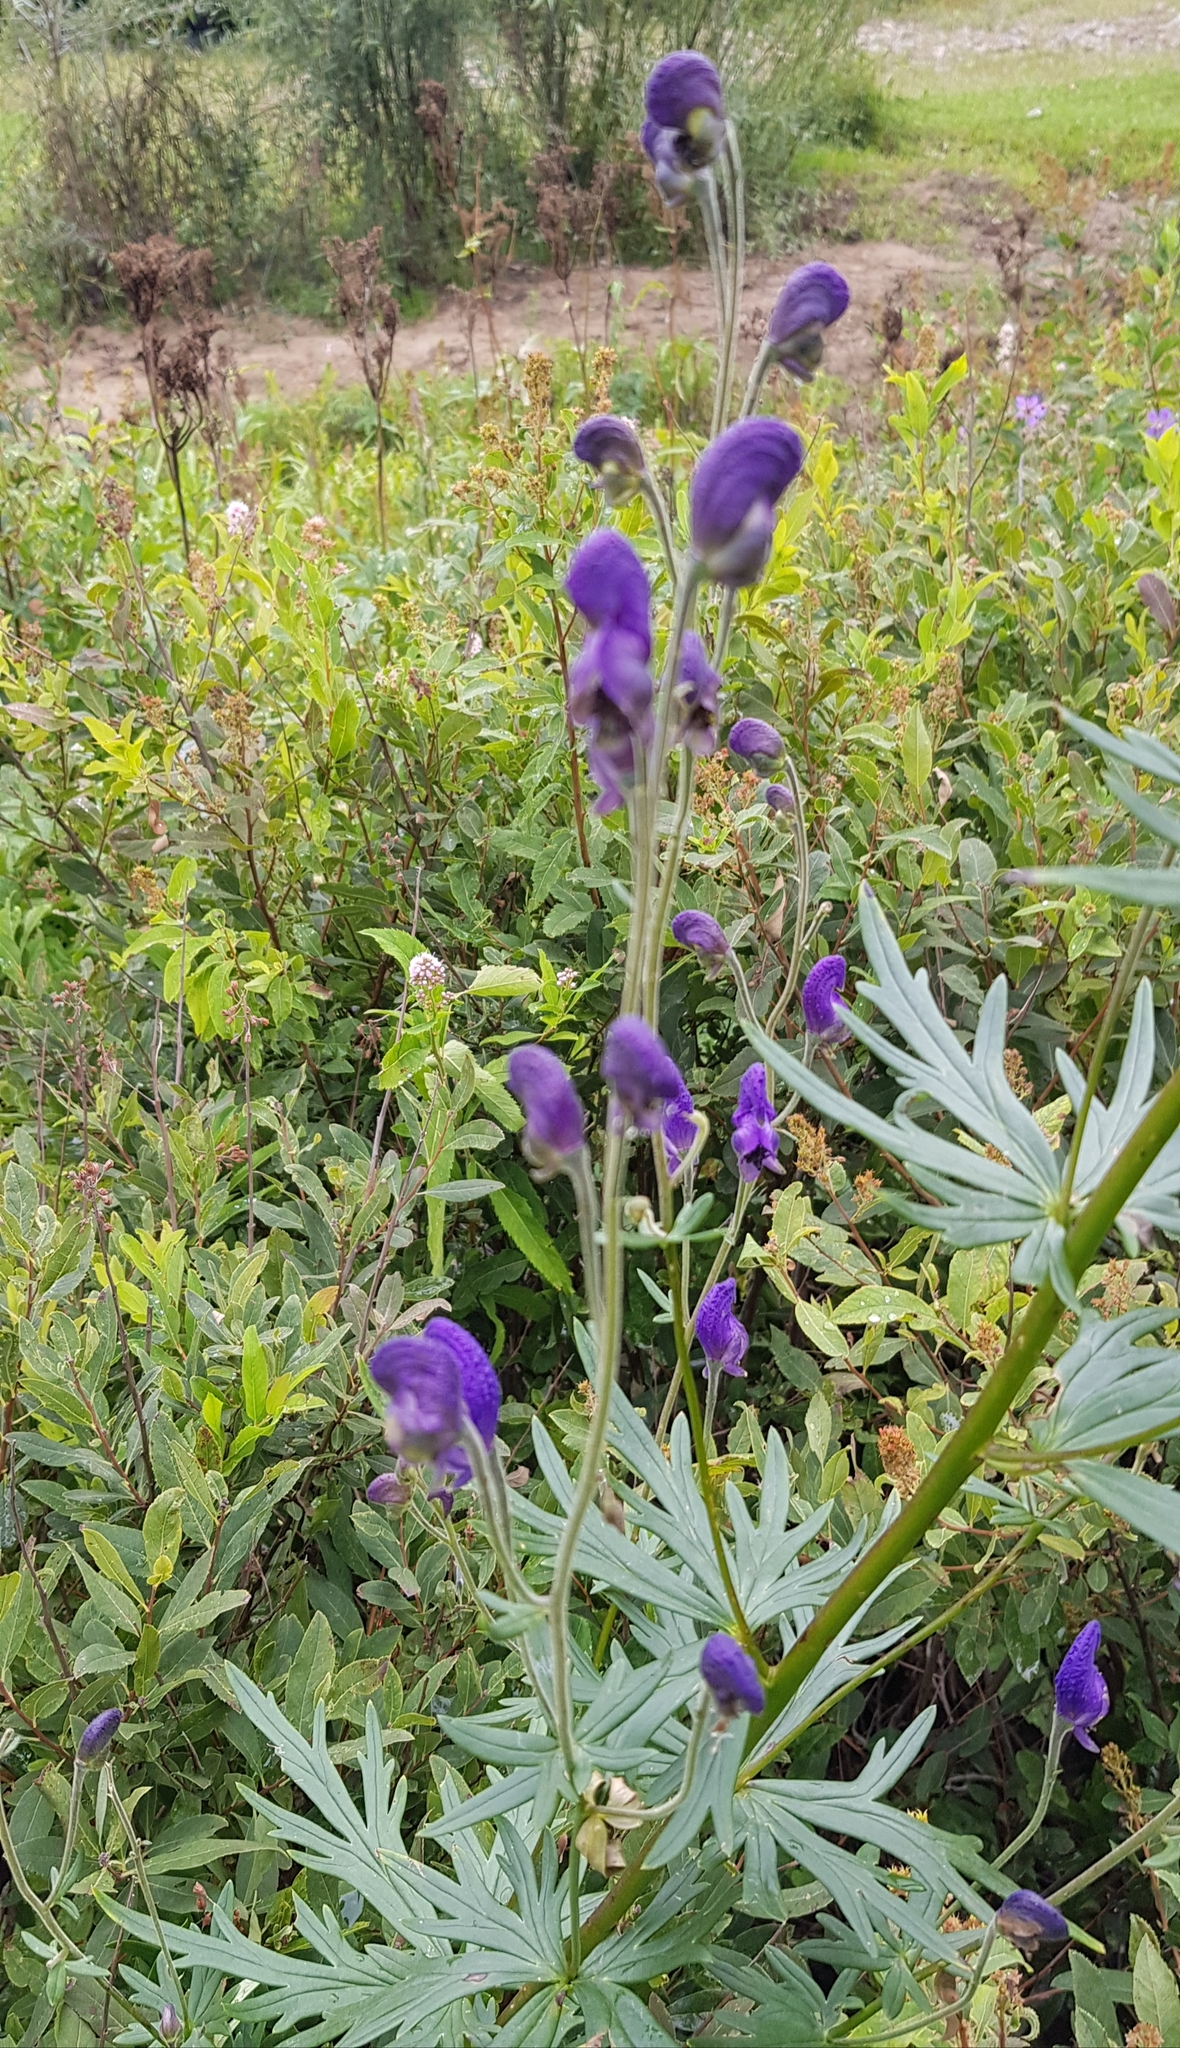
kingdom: Plantae
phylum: Tracheophyta
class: Magnoliopsida
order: Ranunculales
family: Ranunculaceae
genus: Aconitum
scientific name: Aconitum baicalense
